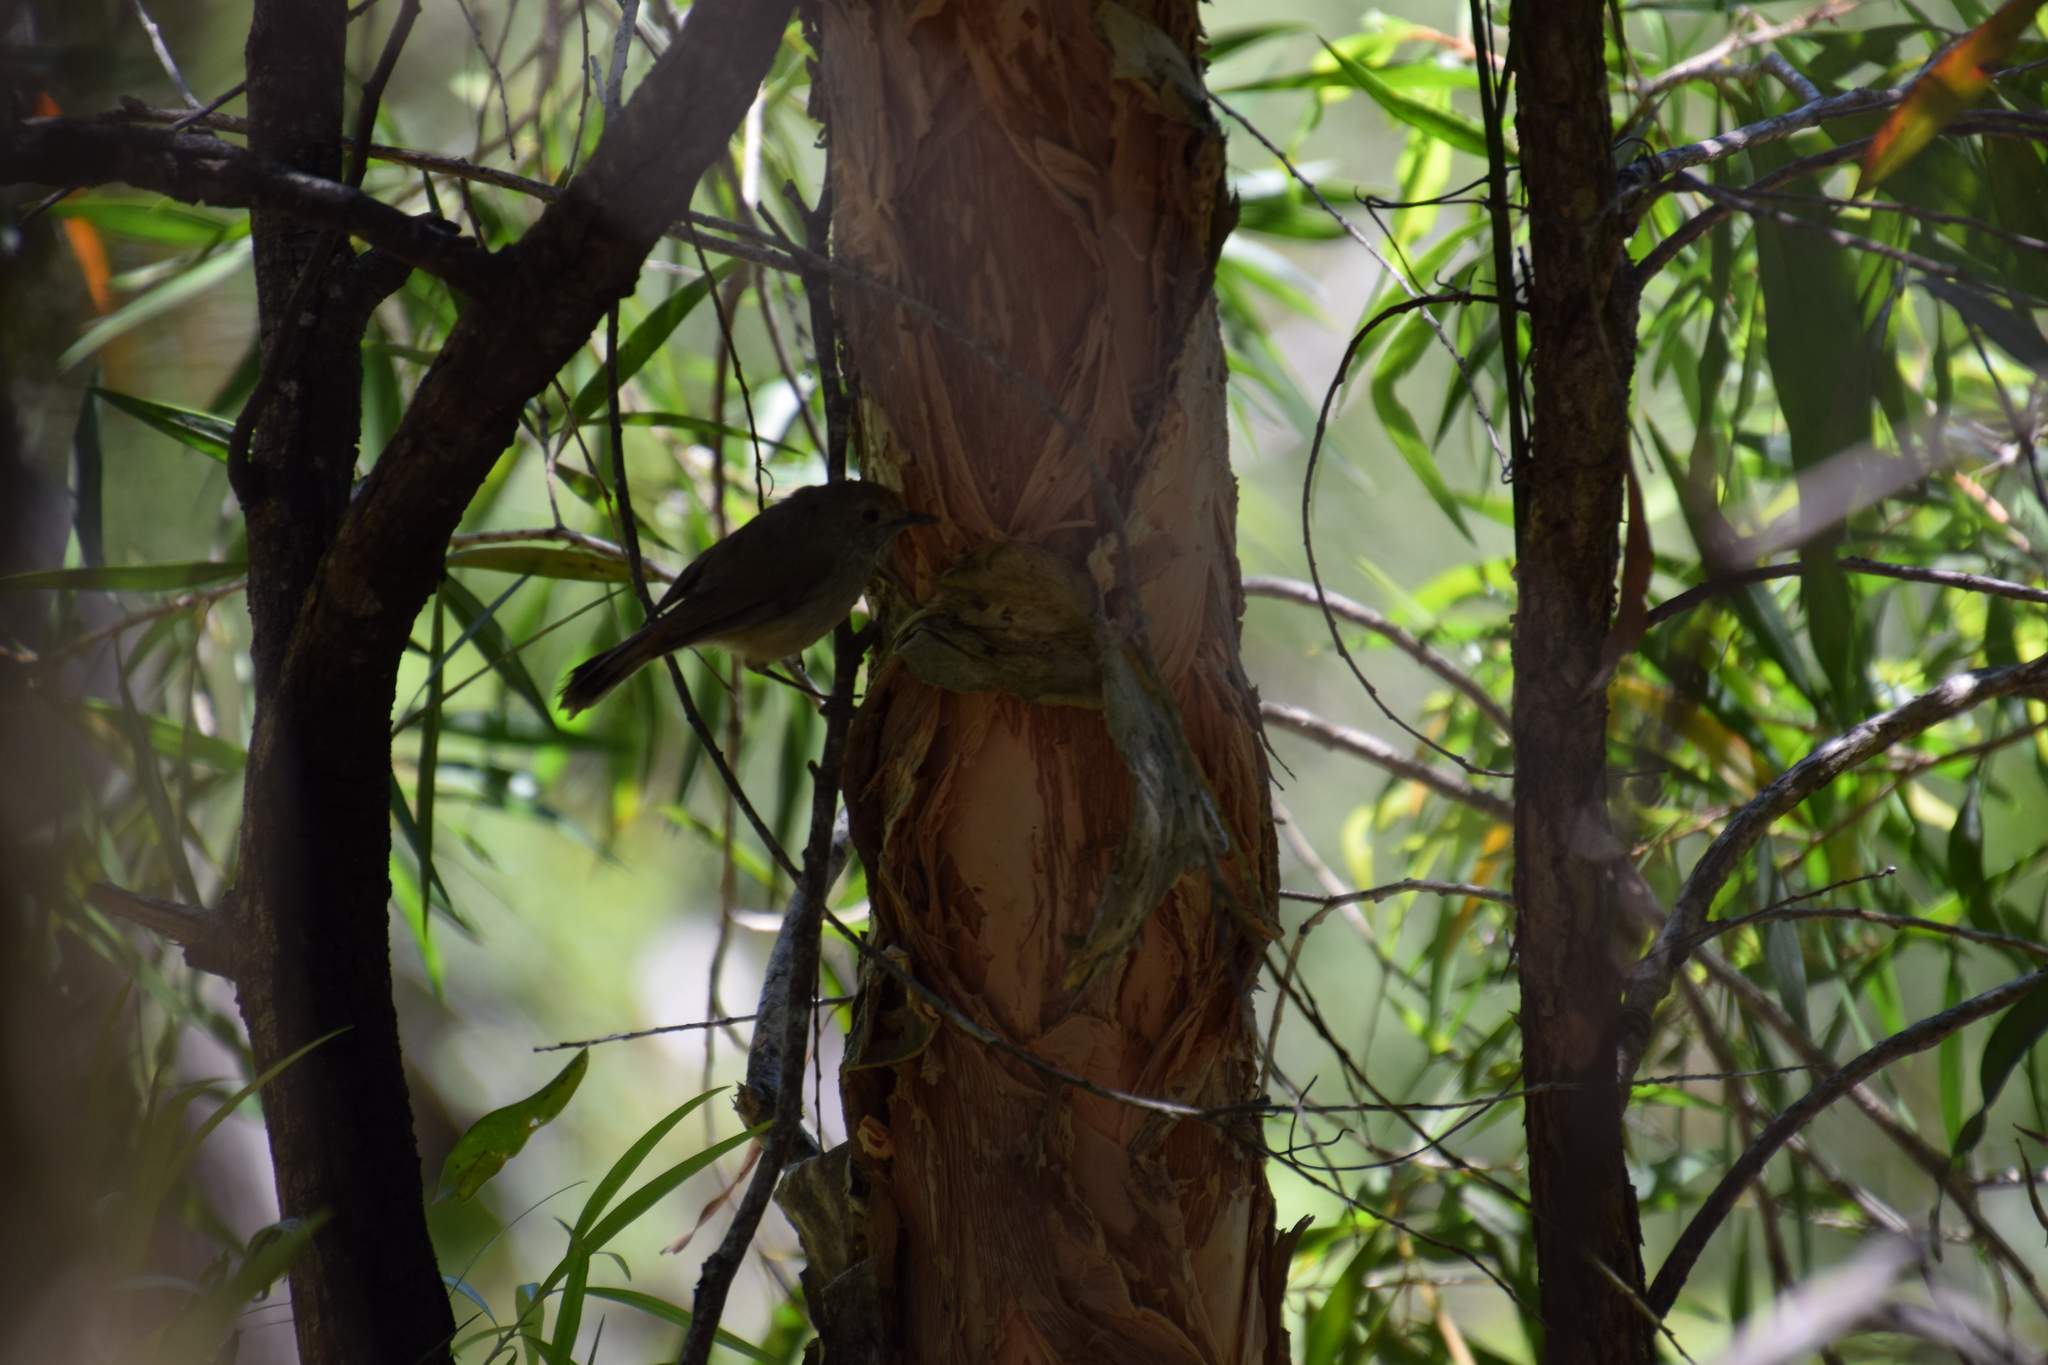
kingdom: Animalia
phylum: Chordata
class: Aves
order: Passeriformes
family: Acanthizidae
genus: Acanthiza
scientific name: Acanthiza pusilla
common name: Brown thornbill
